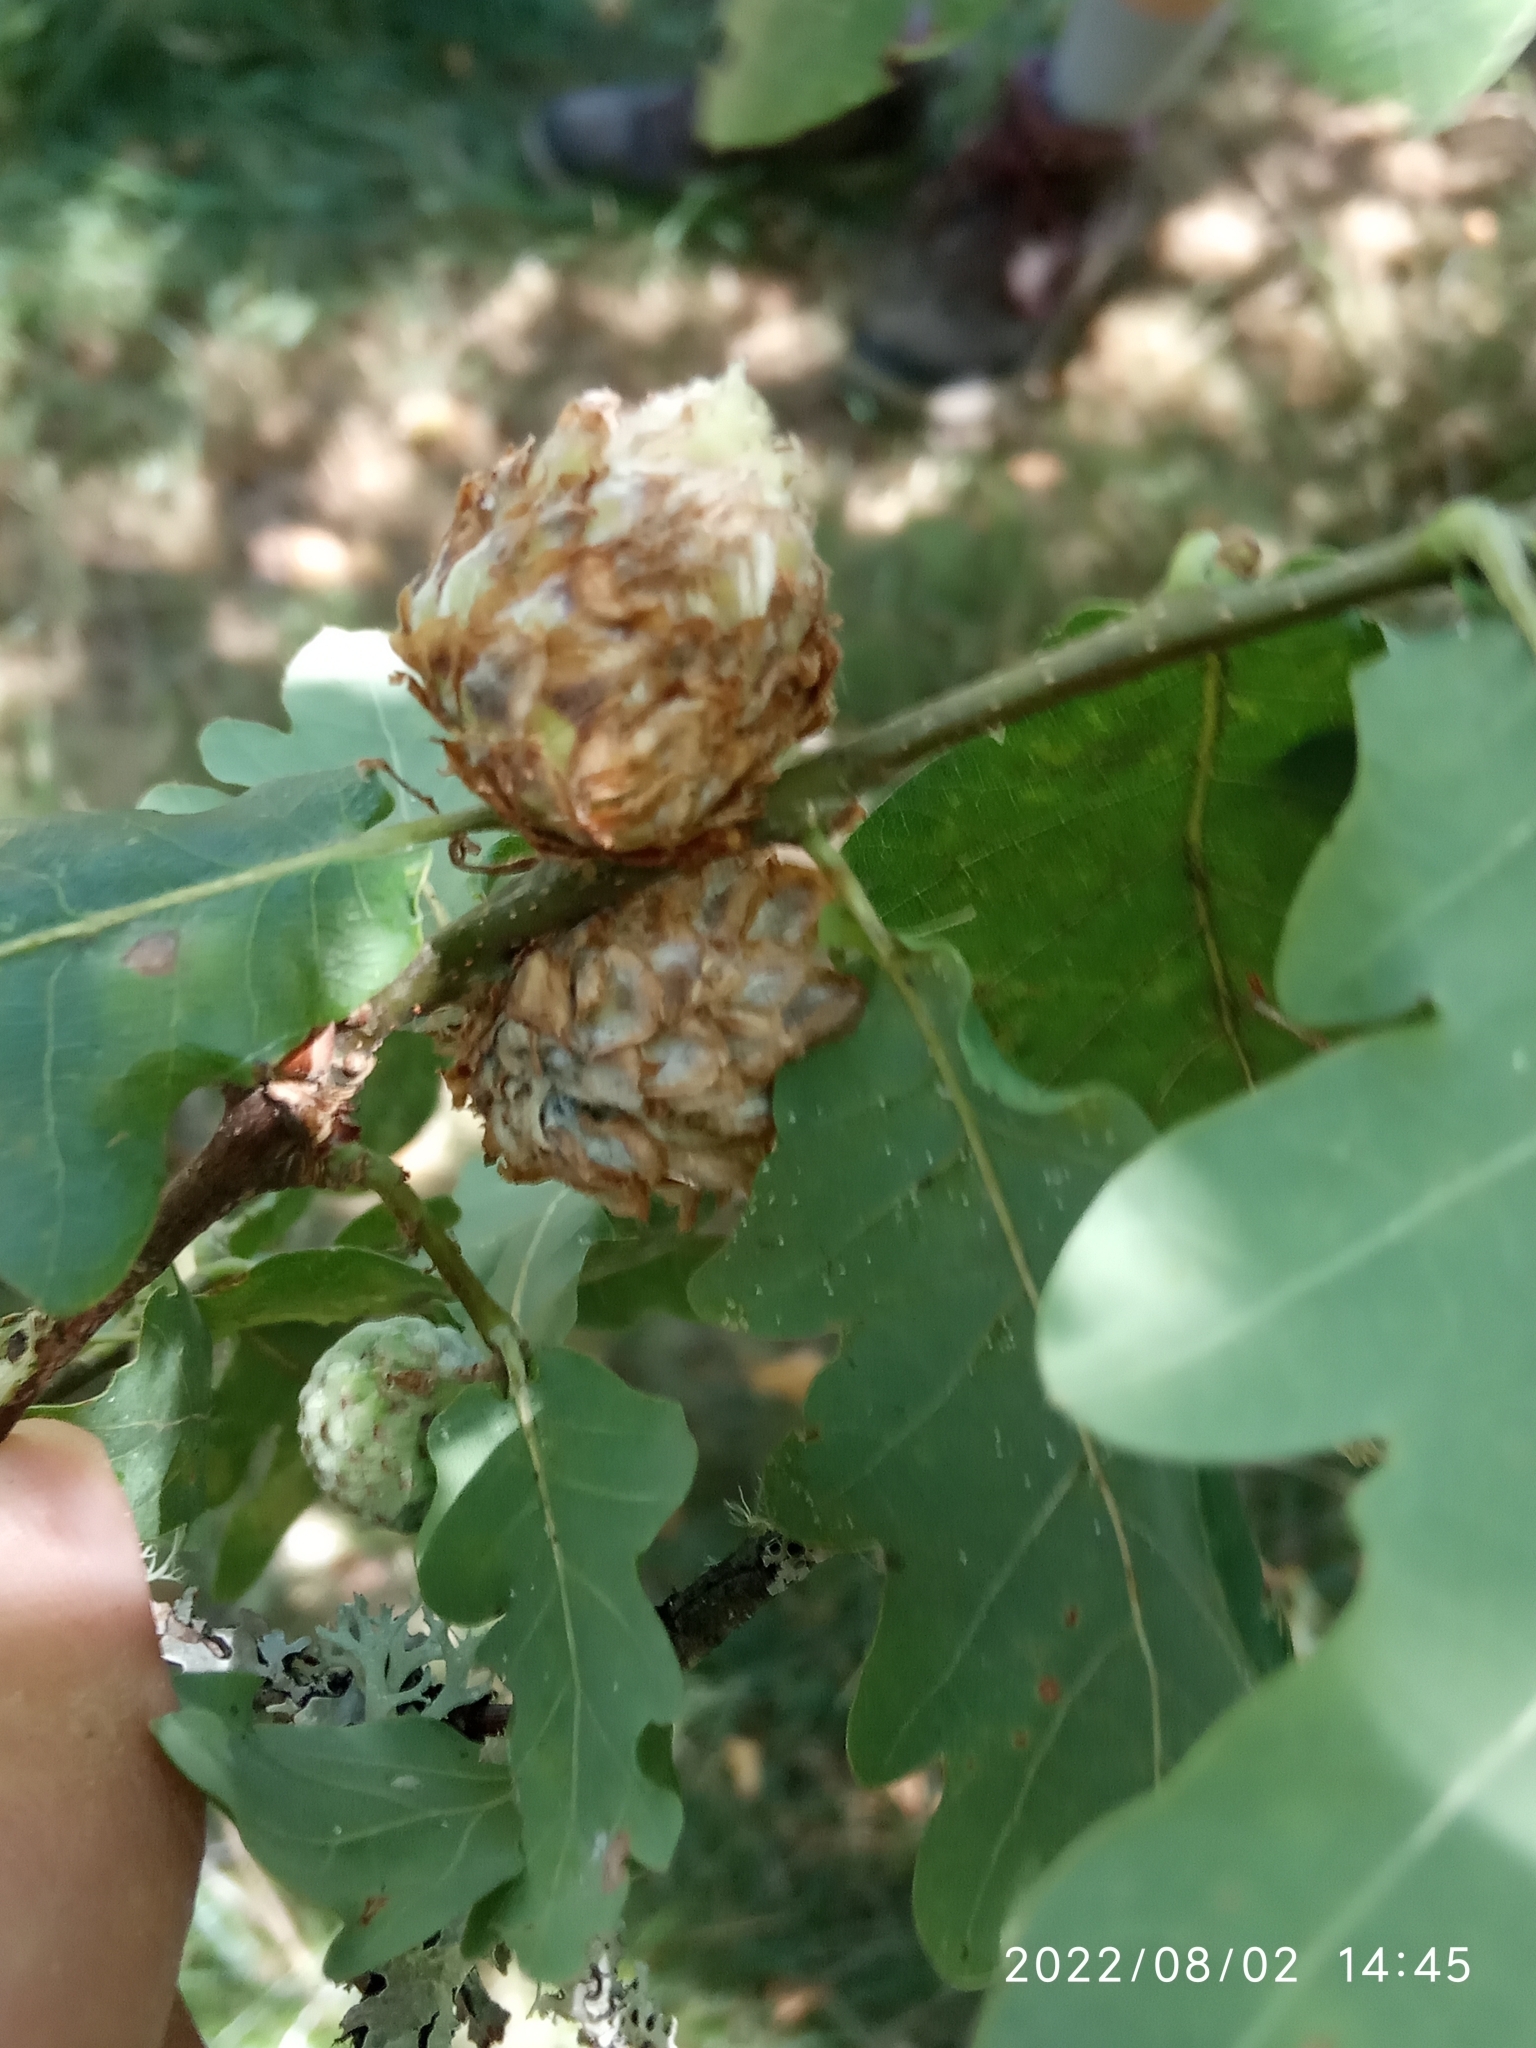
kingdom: Animalia
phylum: Arthropoda
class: Insecta
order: Hymenoptera
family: Cynipidae
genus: Andricus
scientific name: Andricus foecundatrix
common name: Artichoke gall
